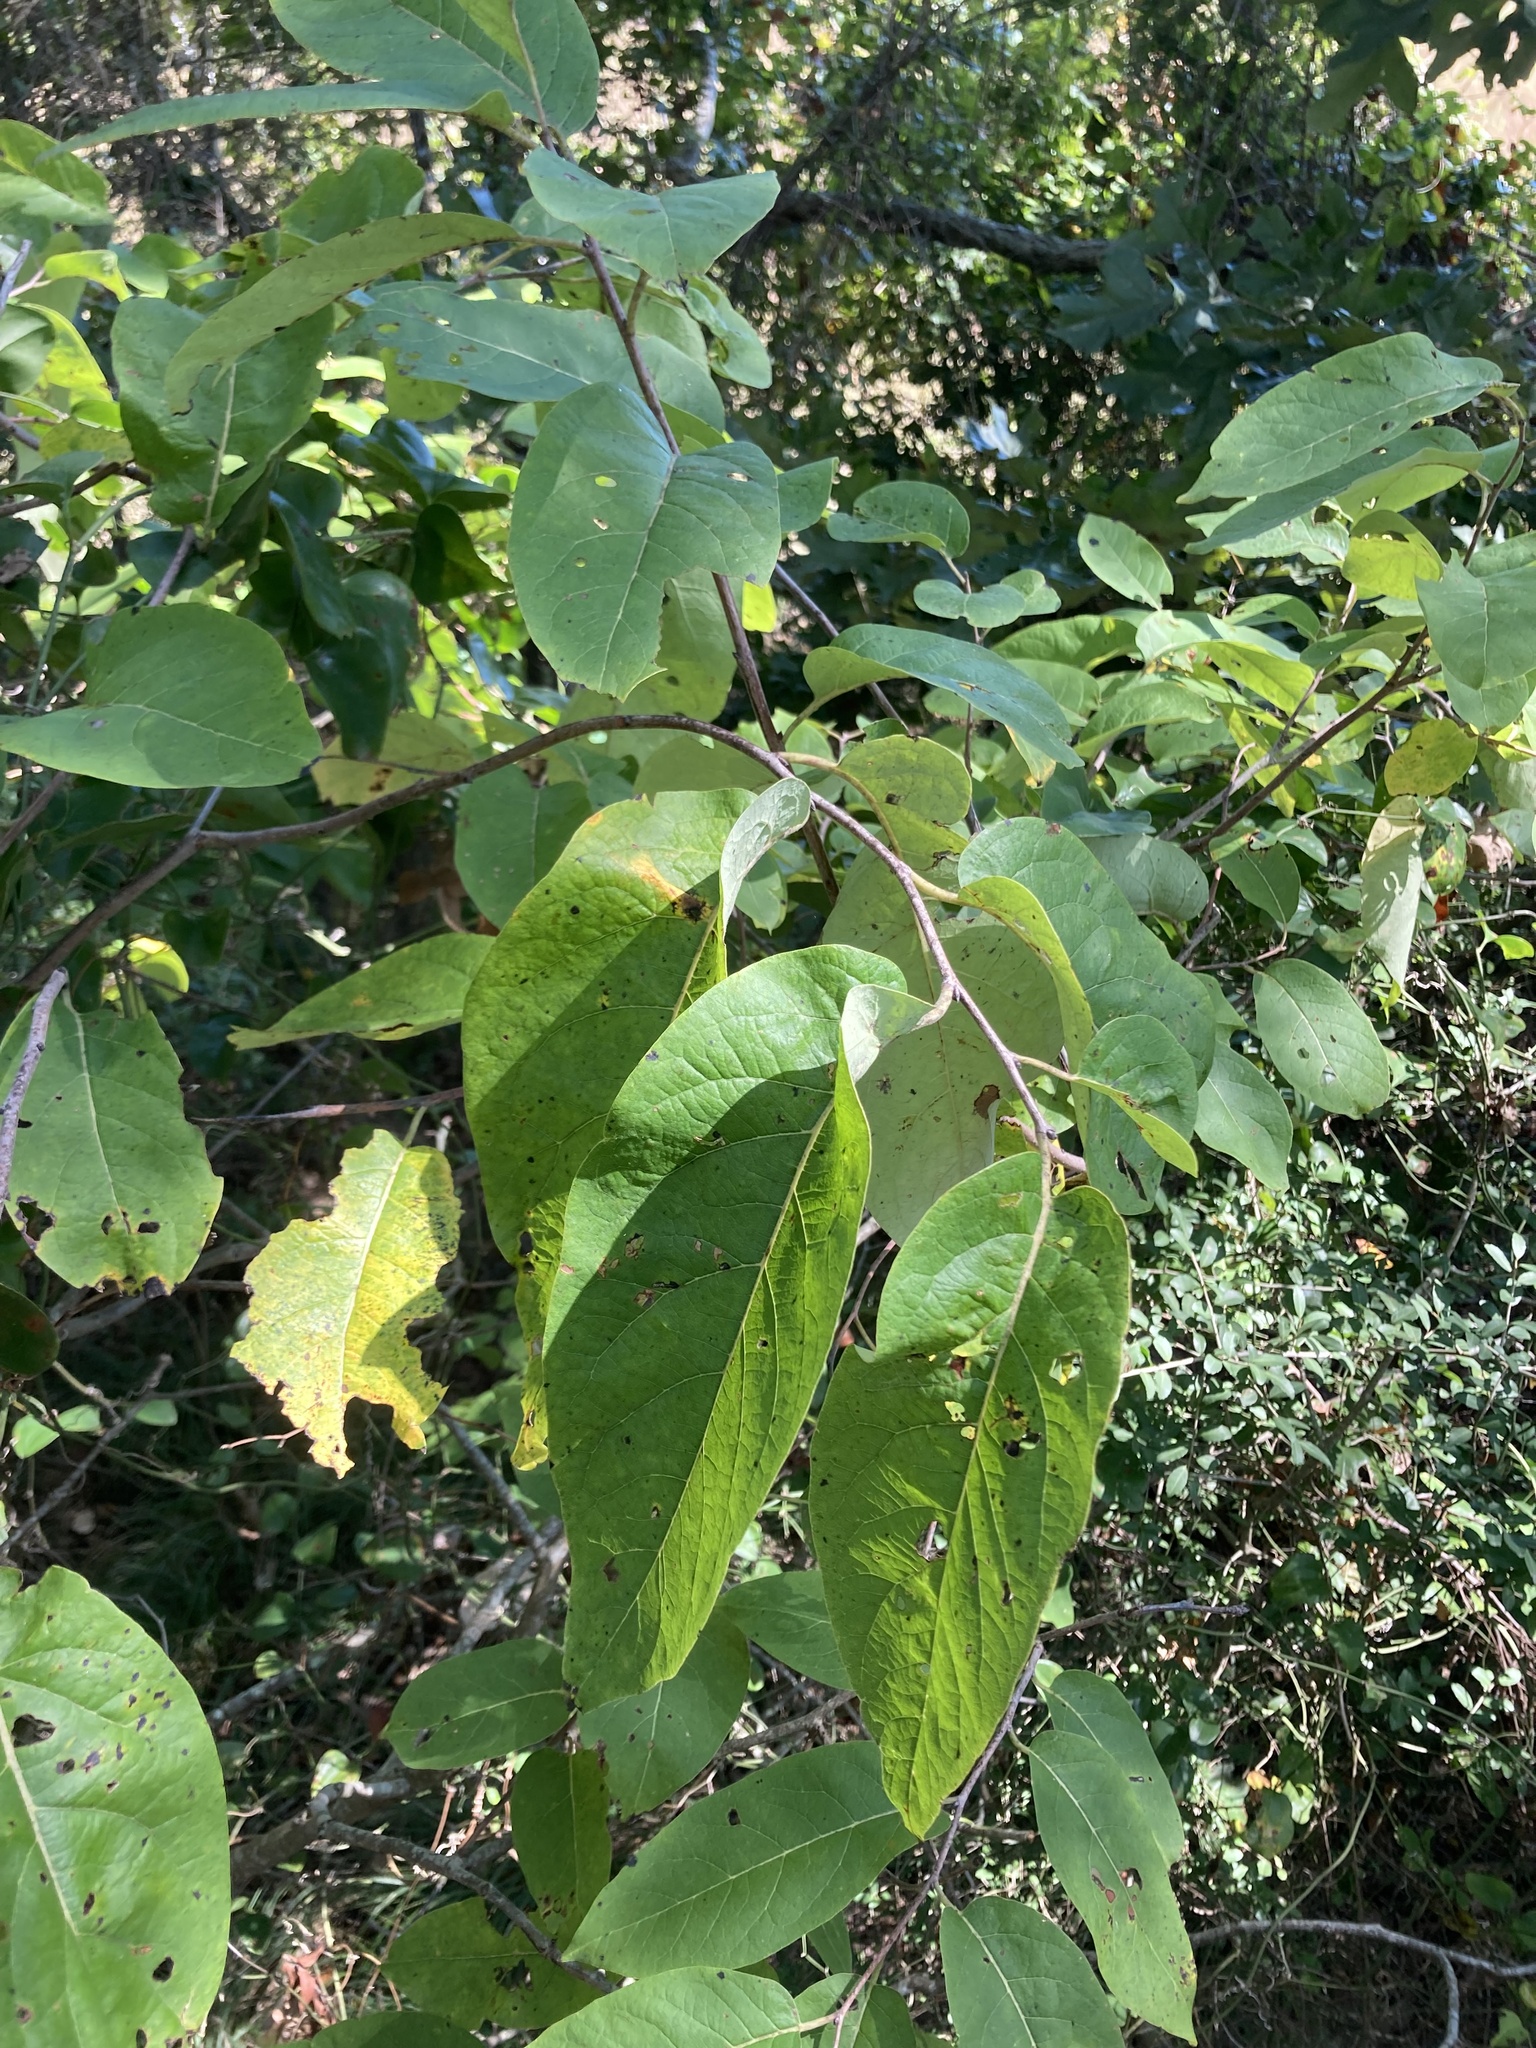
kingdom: Plantae
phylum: Tracheophyta
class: Magnoliopsida
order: Ericales
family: Ebenaceae
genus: Diospyros
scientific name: Diospyros virginiana
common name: Persimmon
